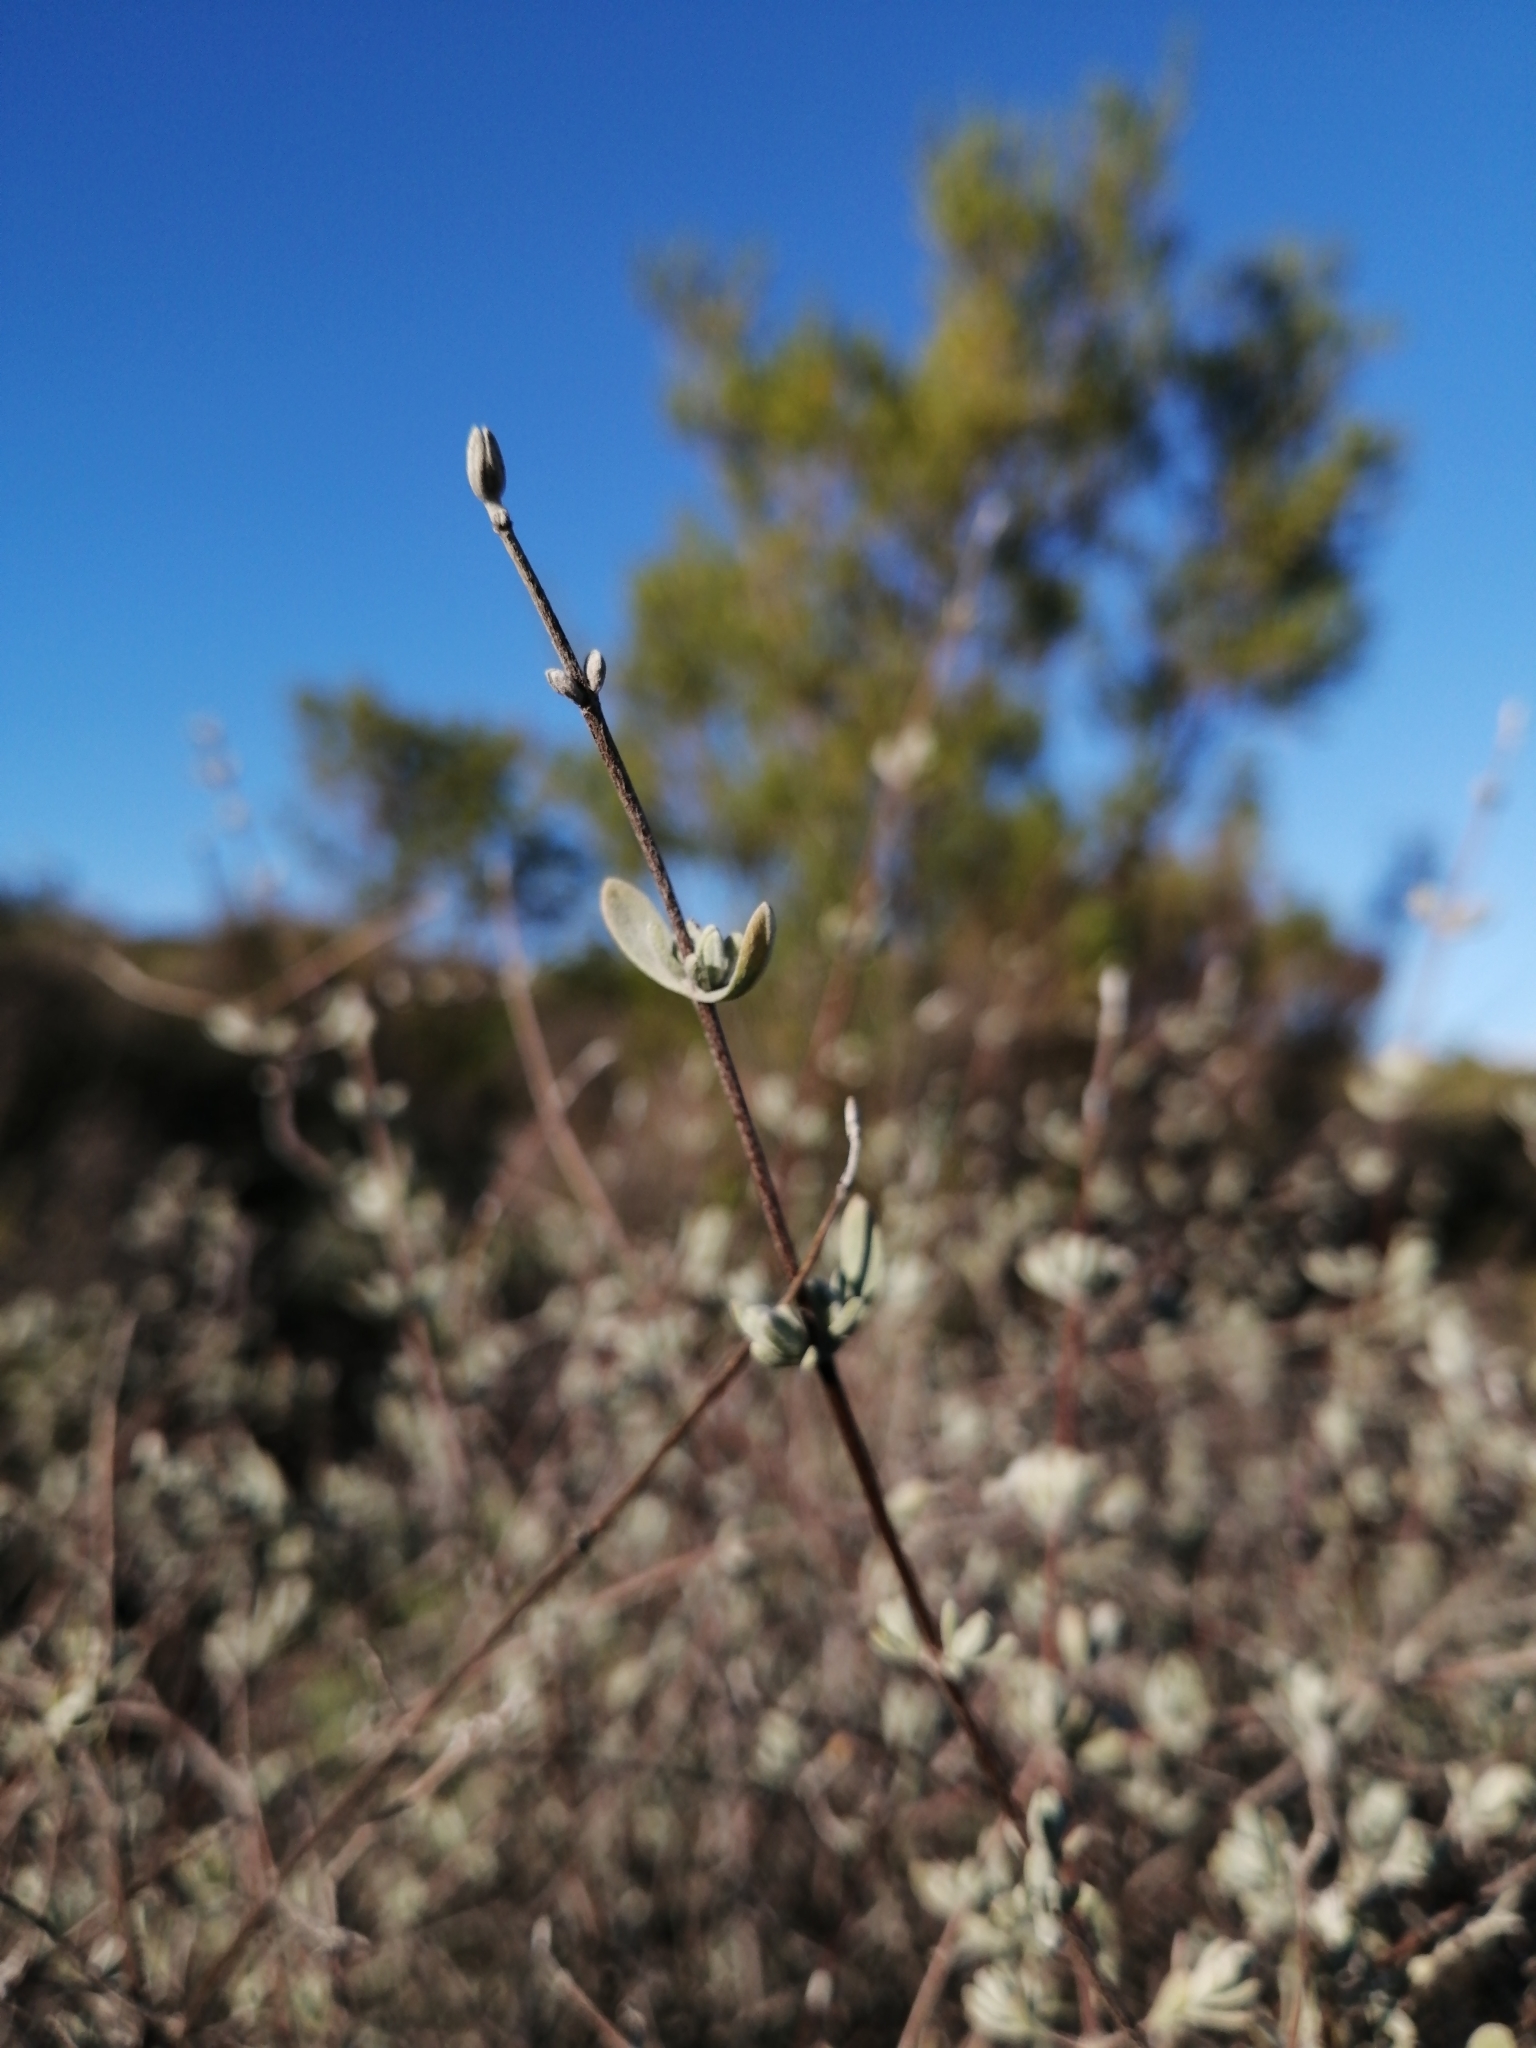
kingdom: Plantae
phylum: Tracheophyta
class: Magnoliopsida
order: Asterales
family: Asteraceae
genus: Pteronia
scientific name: Pteronia incana
